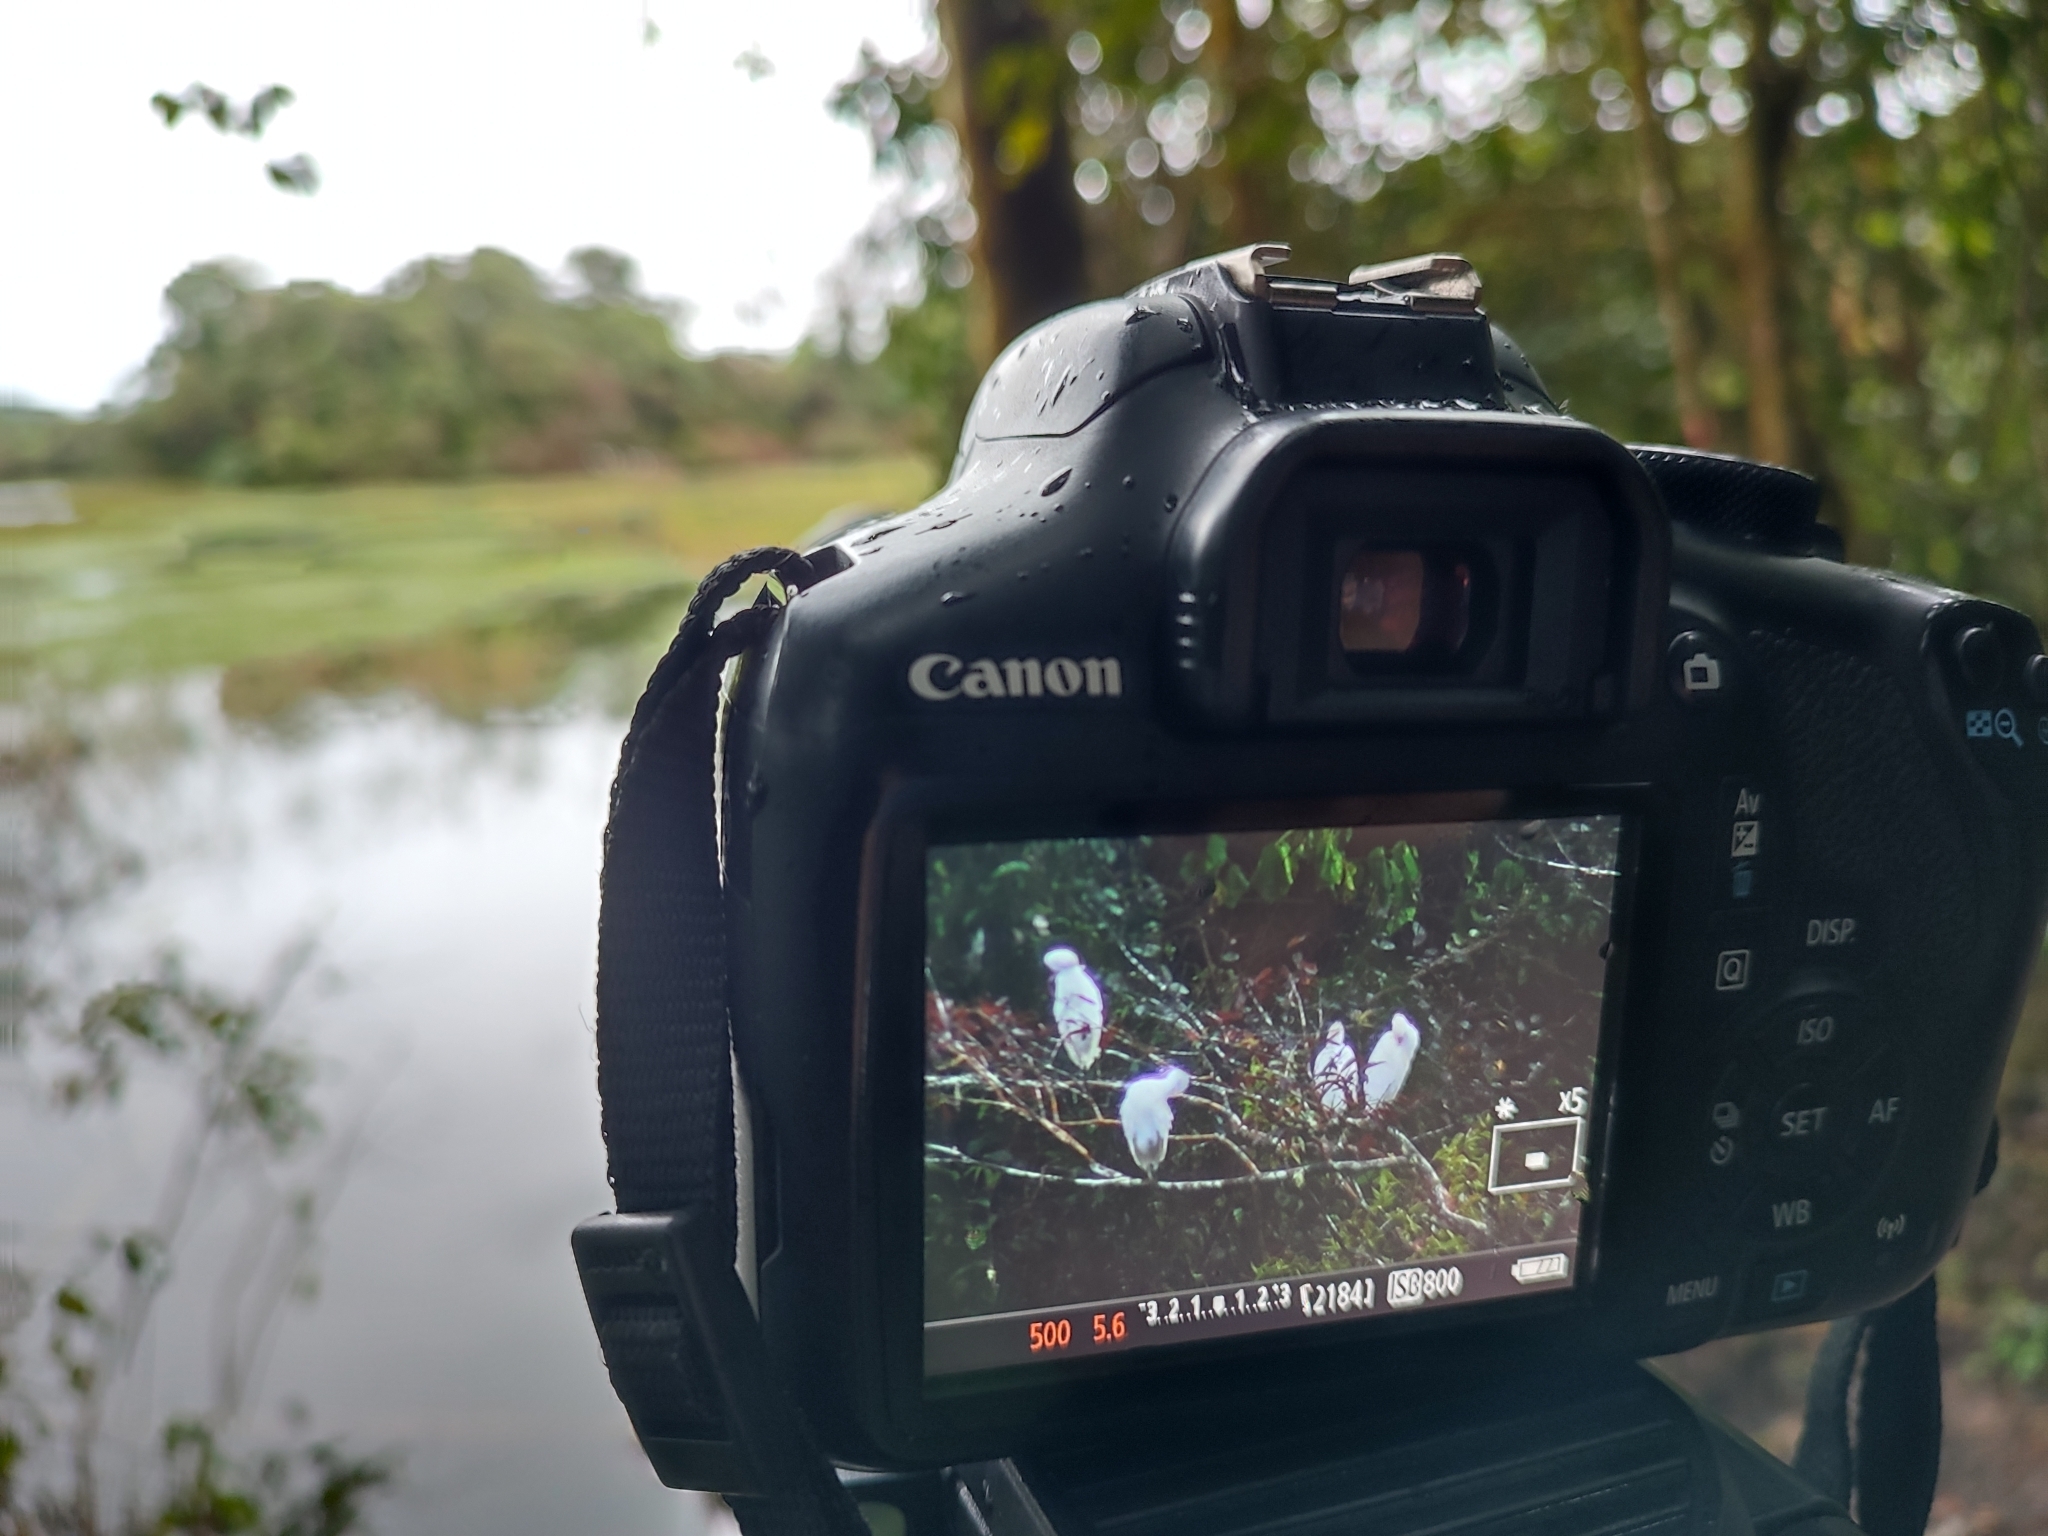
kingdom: Animalia
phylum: Chordata
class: Aves
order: Pelecaniformes
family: Ardeidae
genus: Bubulcus
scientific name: Bubulcus ibis
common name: Cattle egret
